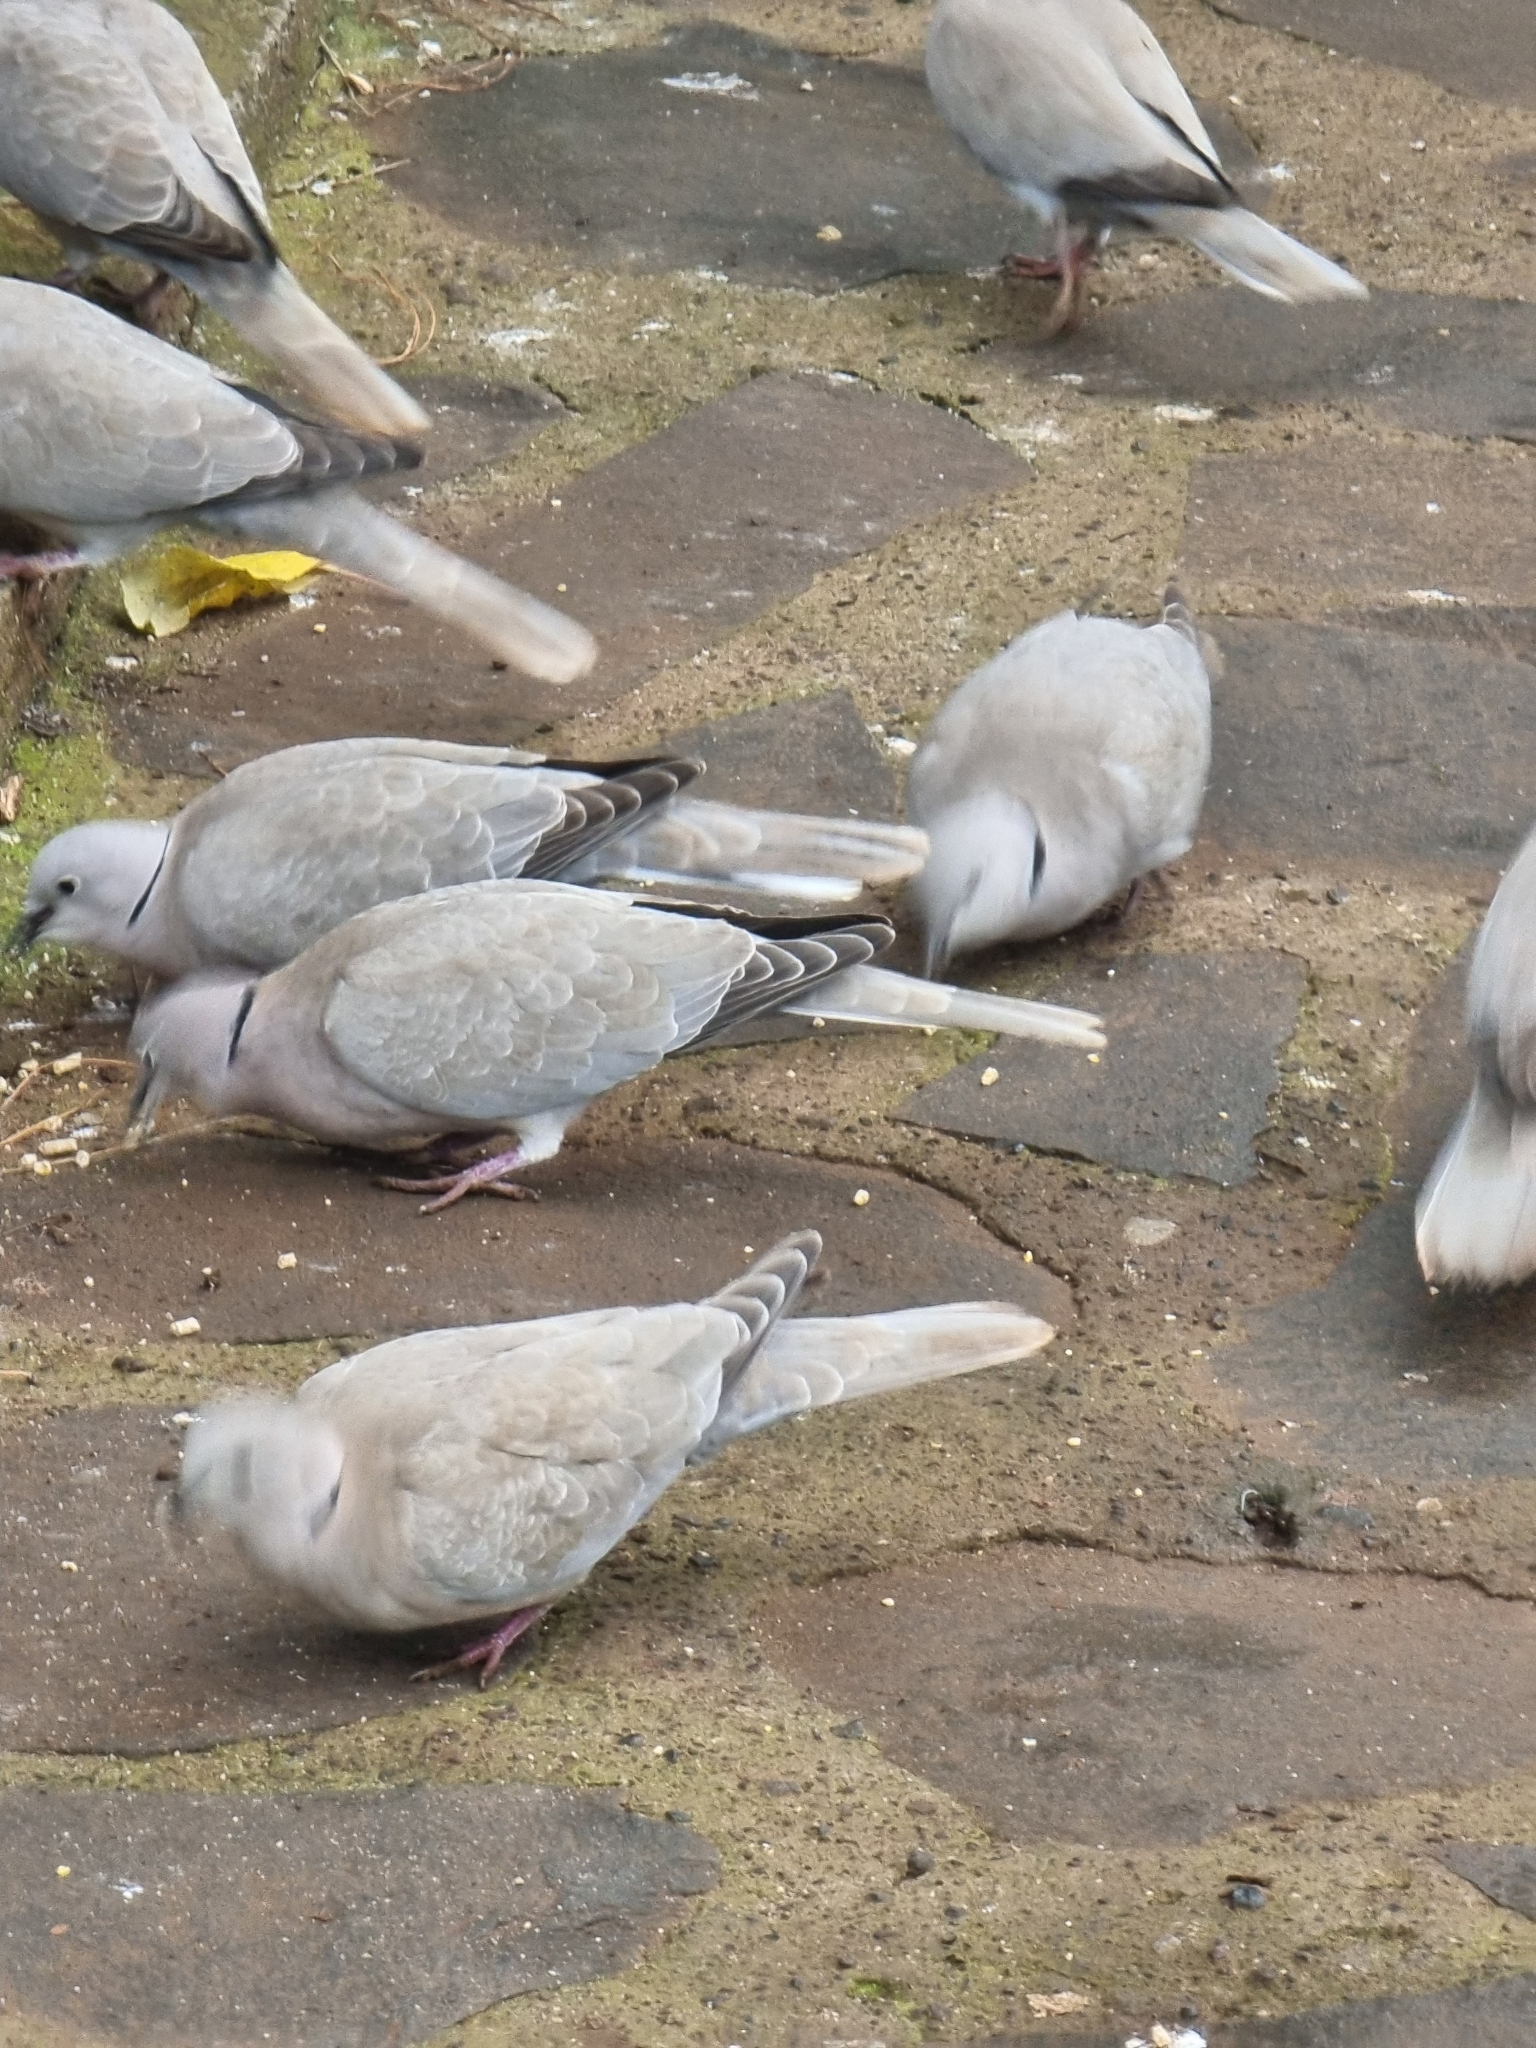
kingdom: Animalia
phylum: Chordata
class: Aves
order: Columbiformes
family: Columbidae
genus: Streptopelia
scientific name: Streptopelia decaocto
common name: Eurasian collared dove
